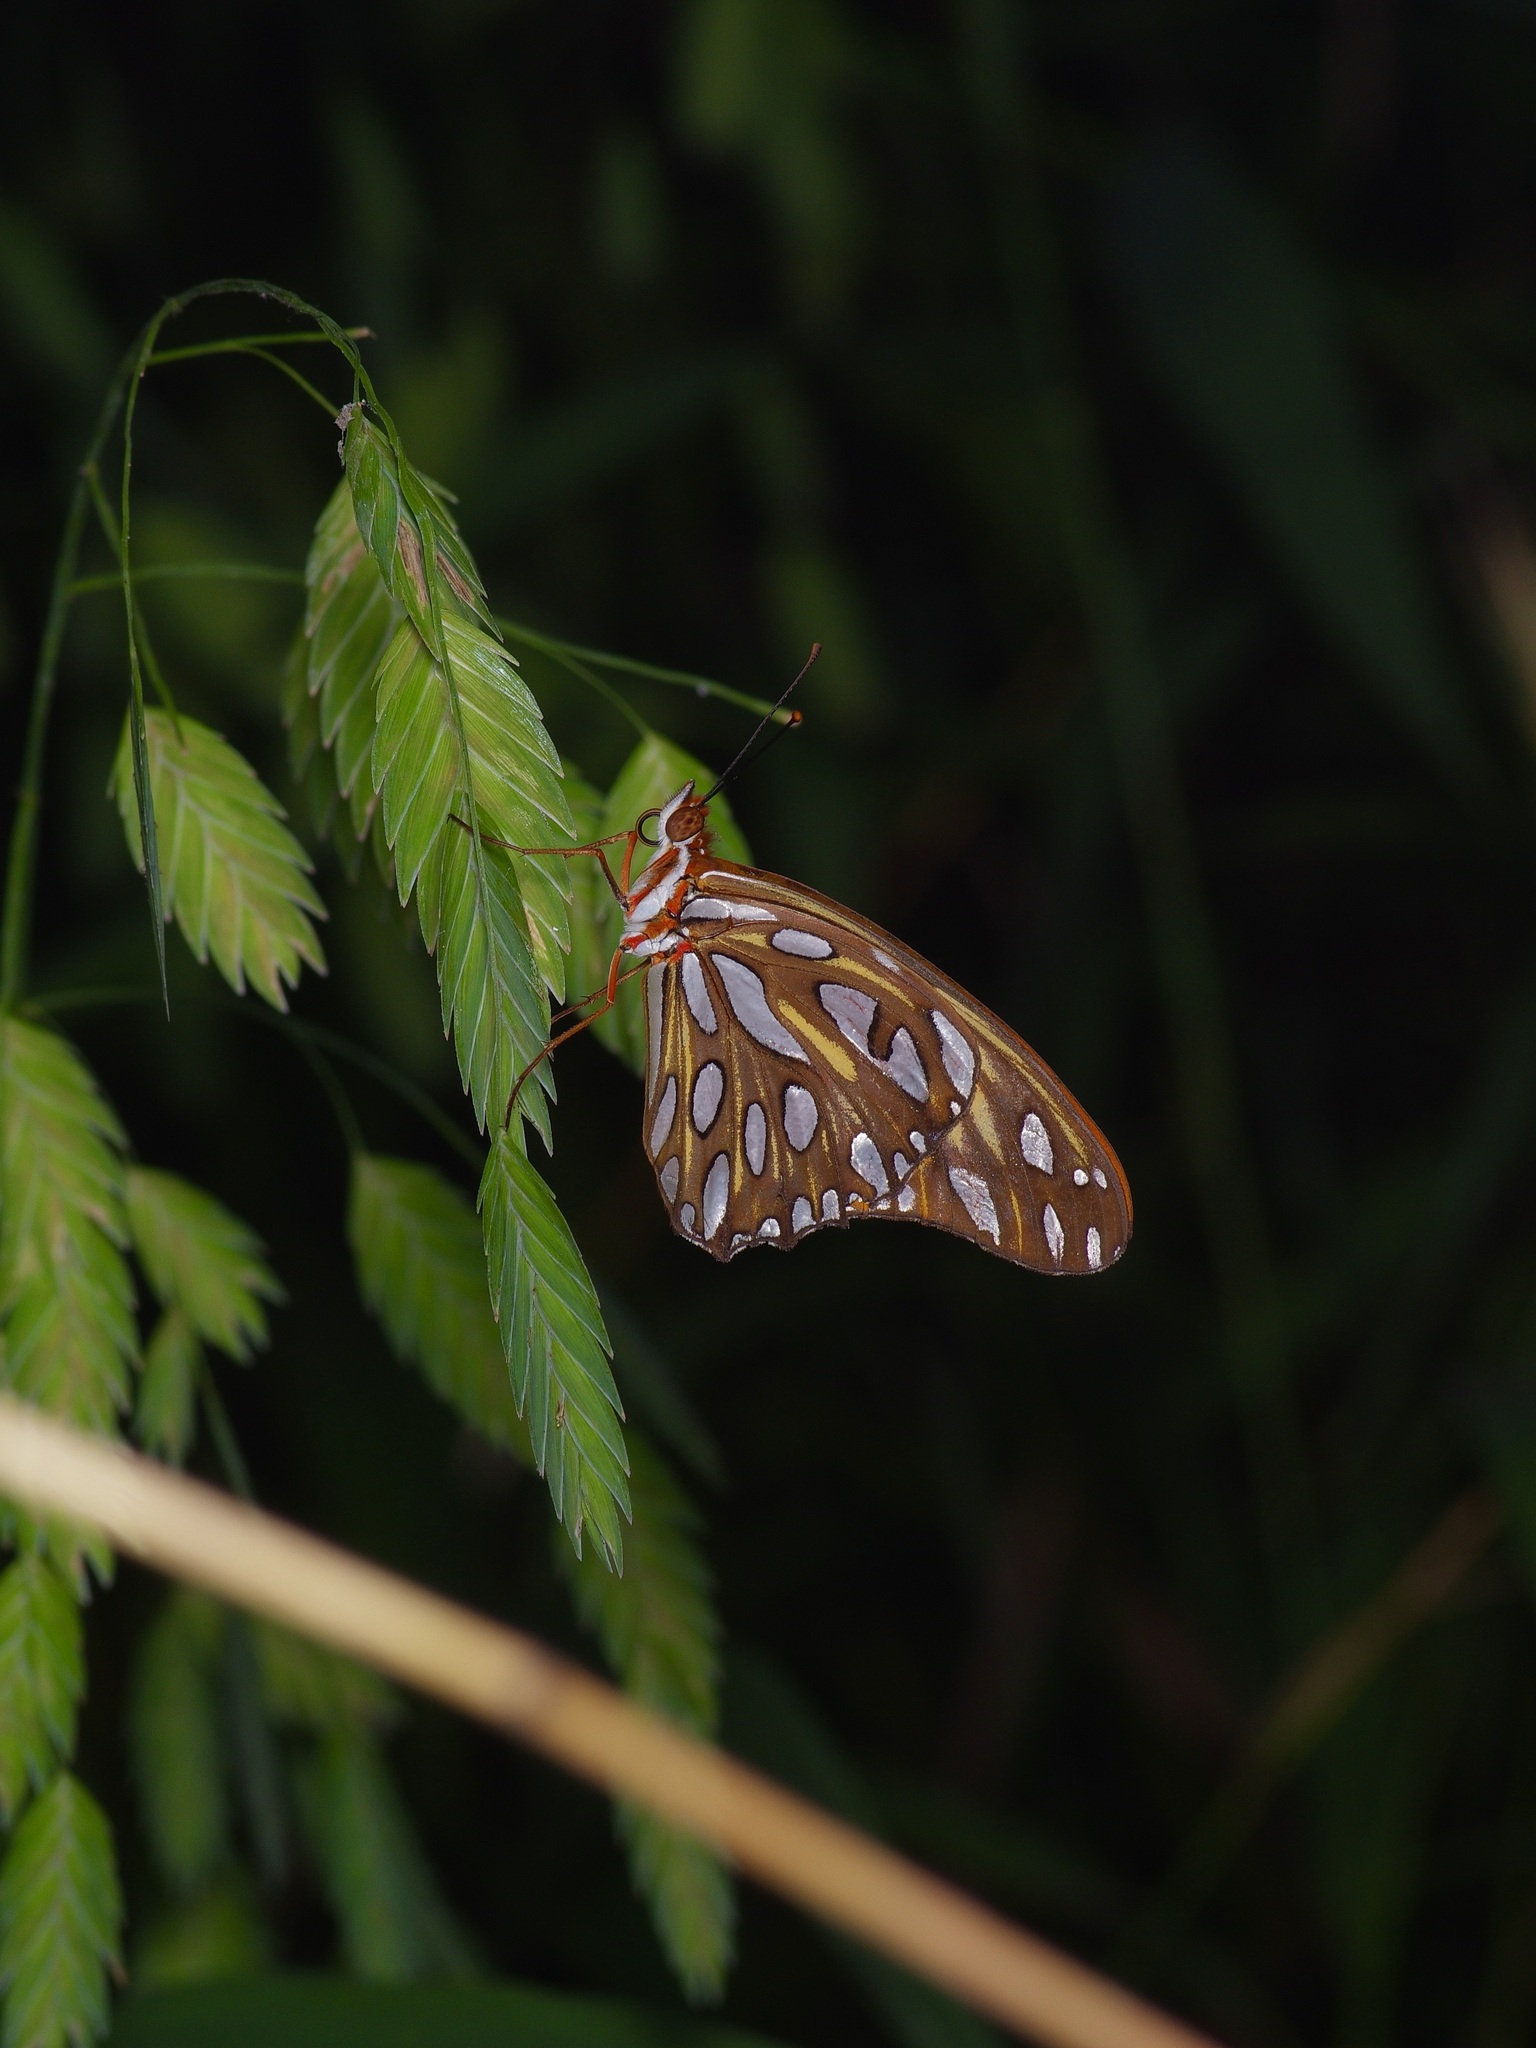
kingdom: Animalia
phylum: Arthropoda
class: Insecta
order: Lepidoptera
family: Nymphalidae
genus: Dione
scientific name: Dione vanillae
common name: Gulf fritillary
